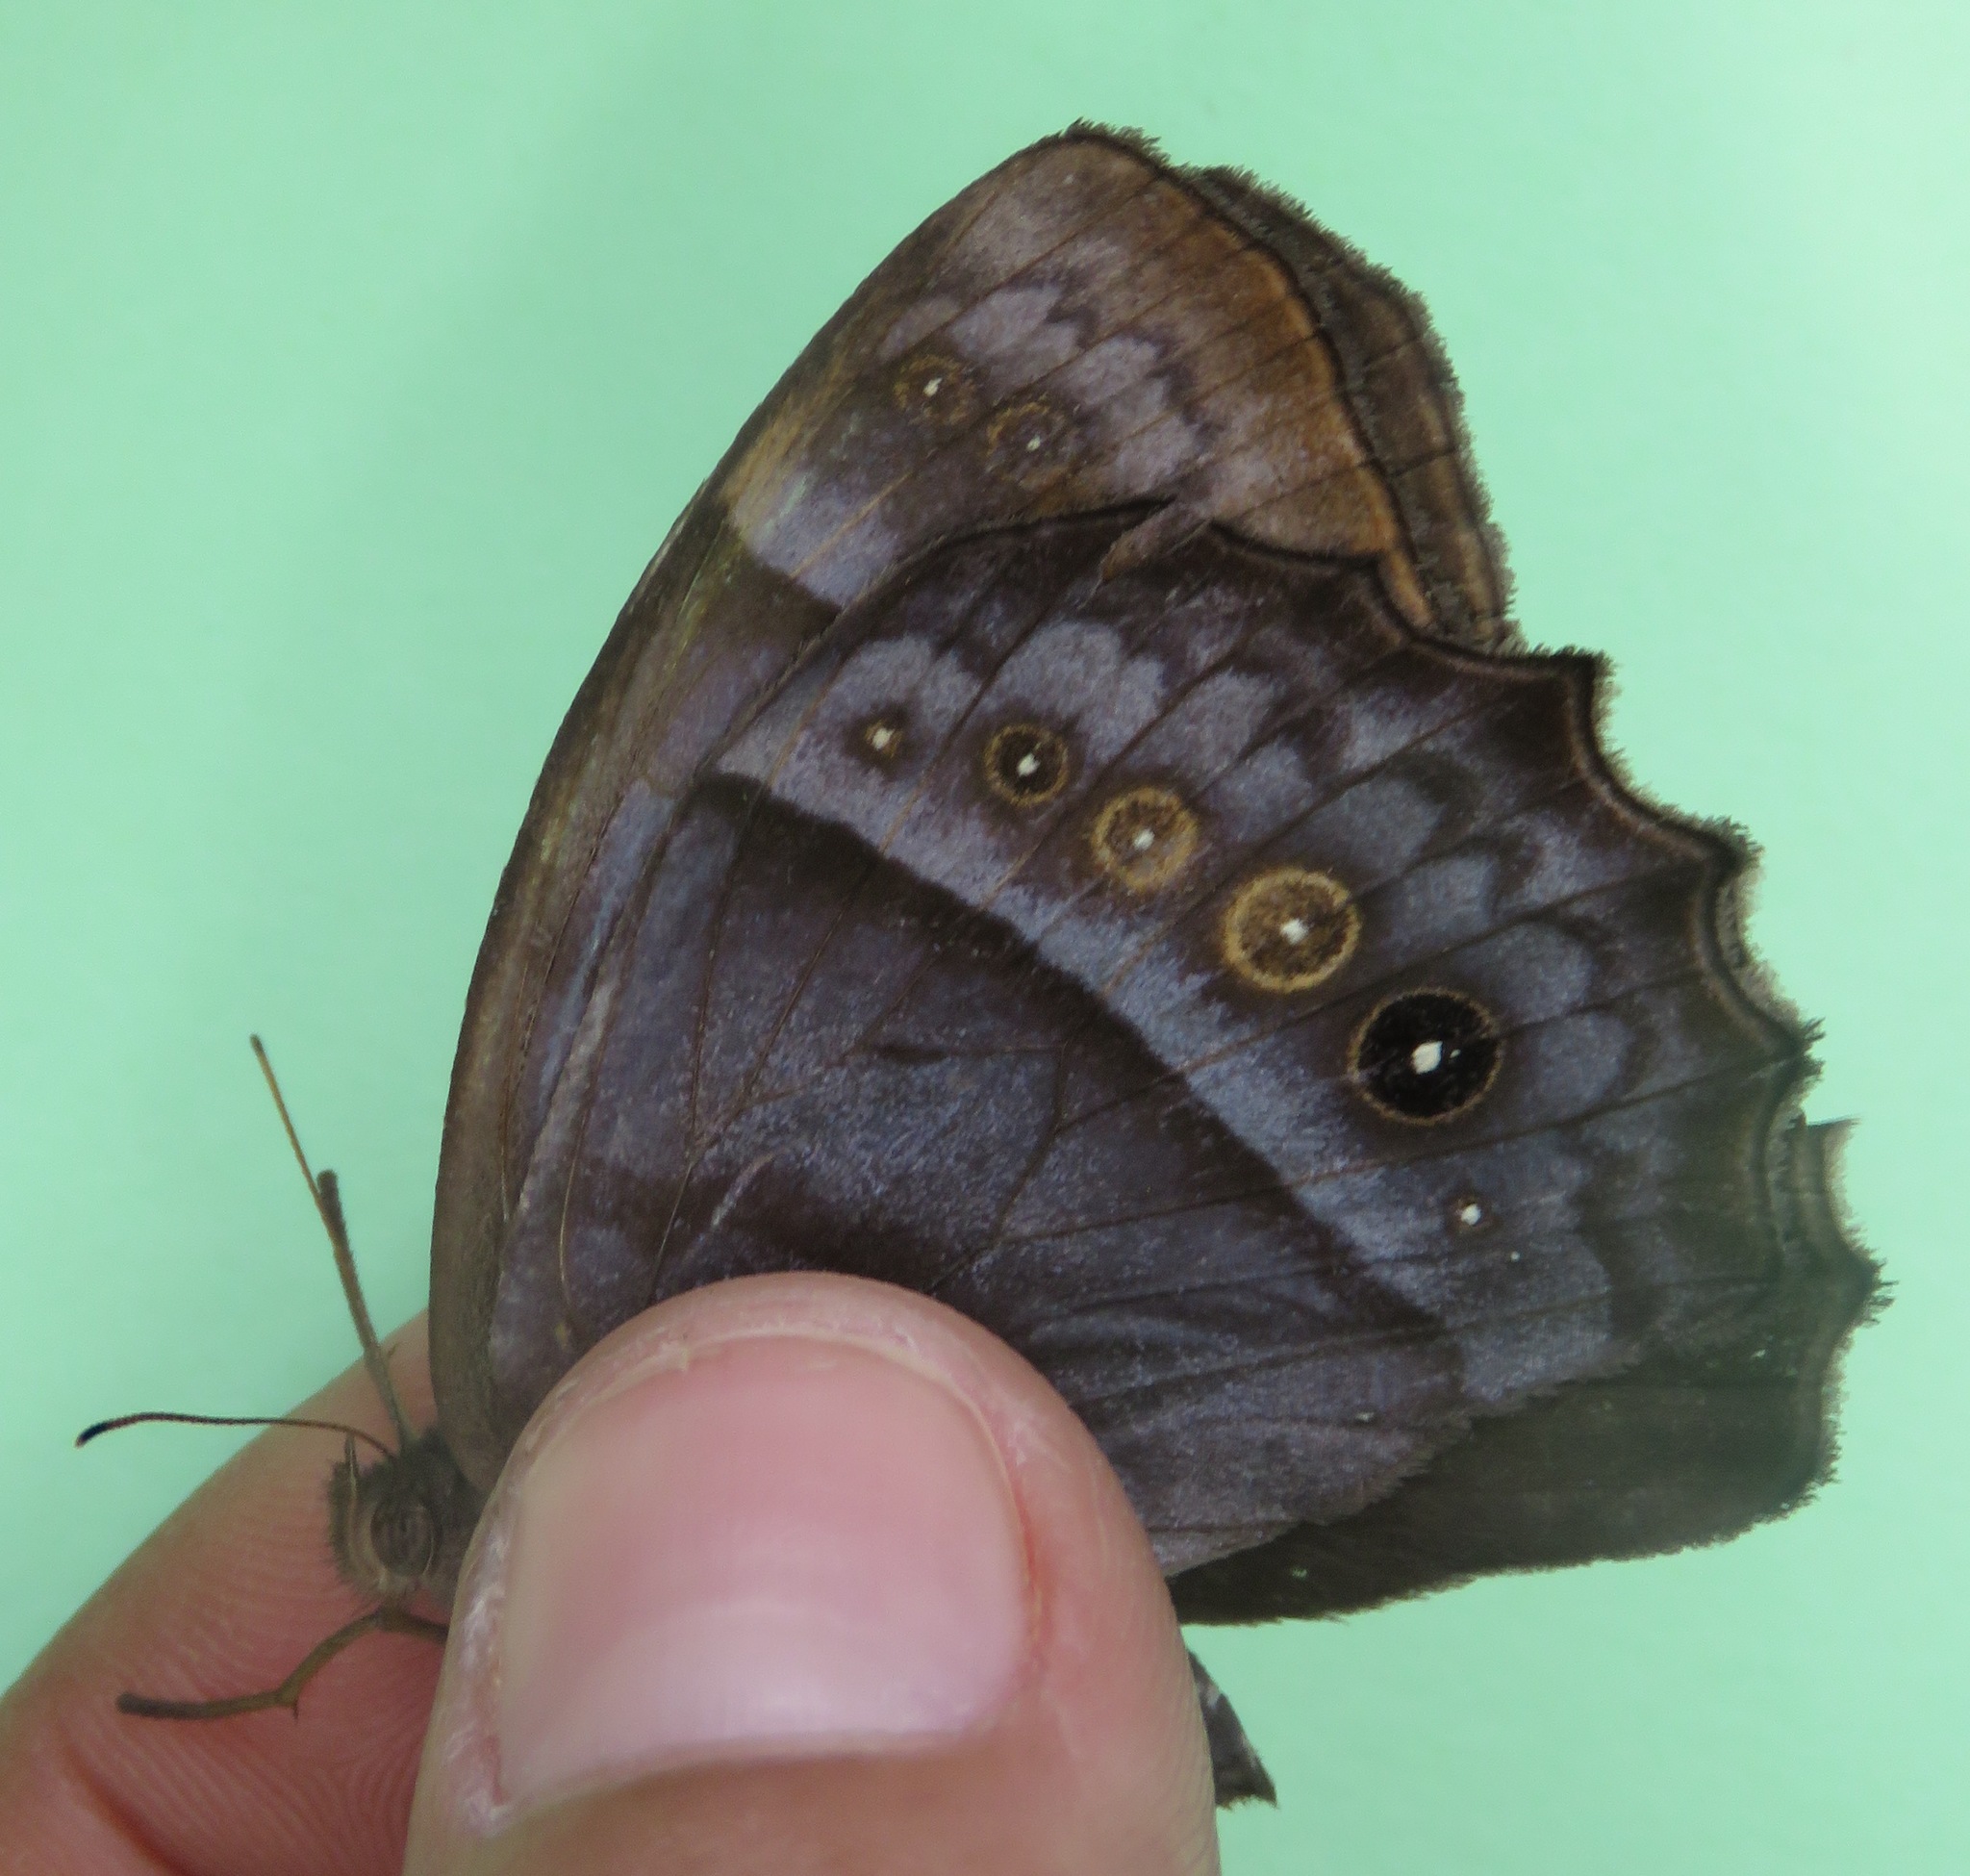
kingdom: Animalia
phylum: Arthropoda
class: Insecta
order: Lepidoptera
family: Nymphalidae
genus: Taygetis
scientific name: Taygetis inconspicua
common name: Inconspicuous satyr
